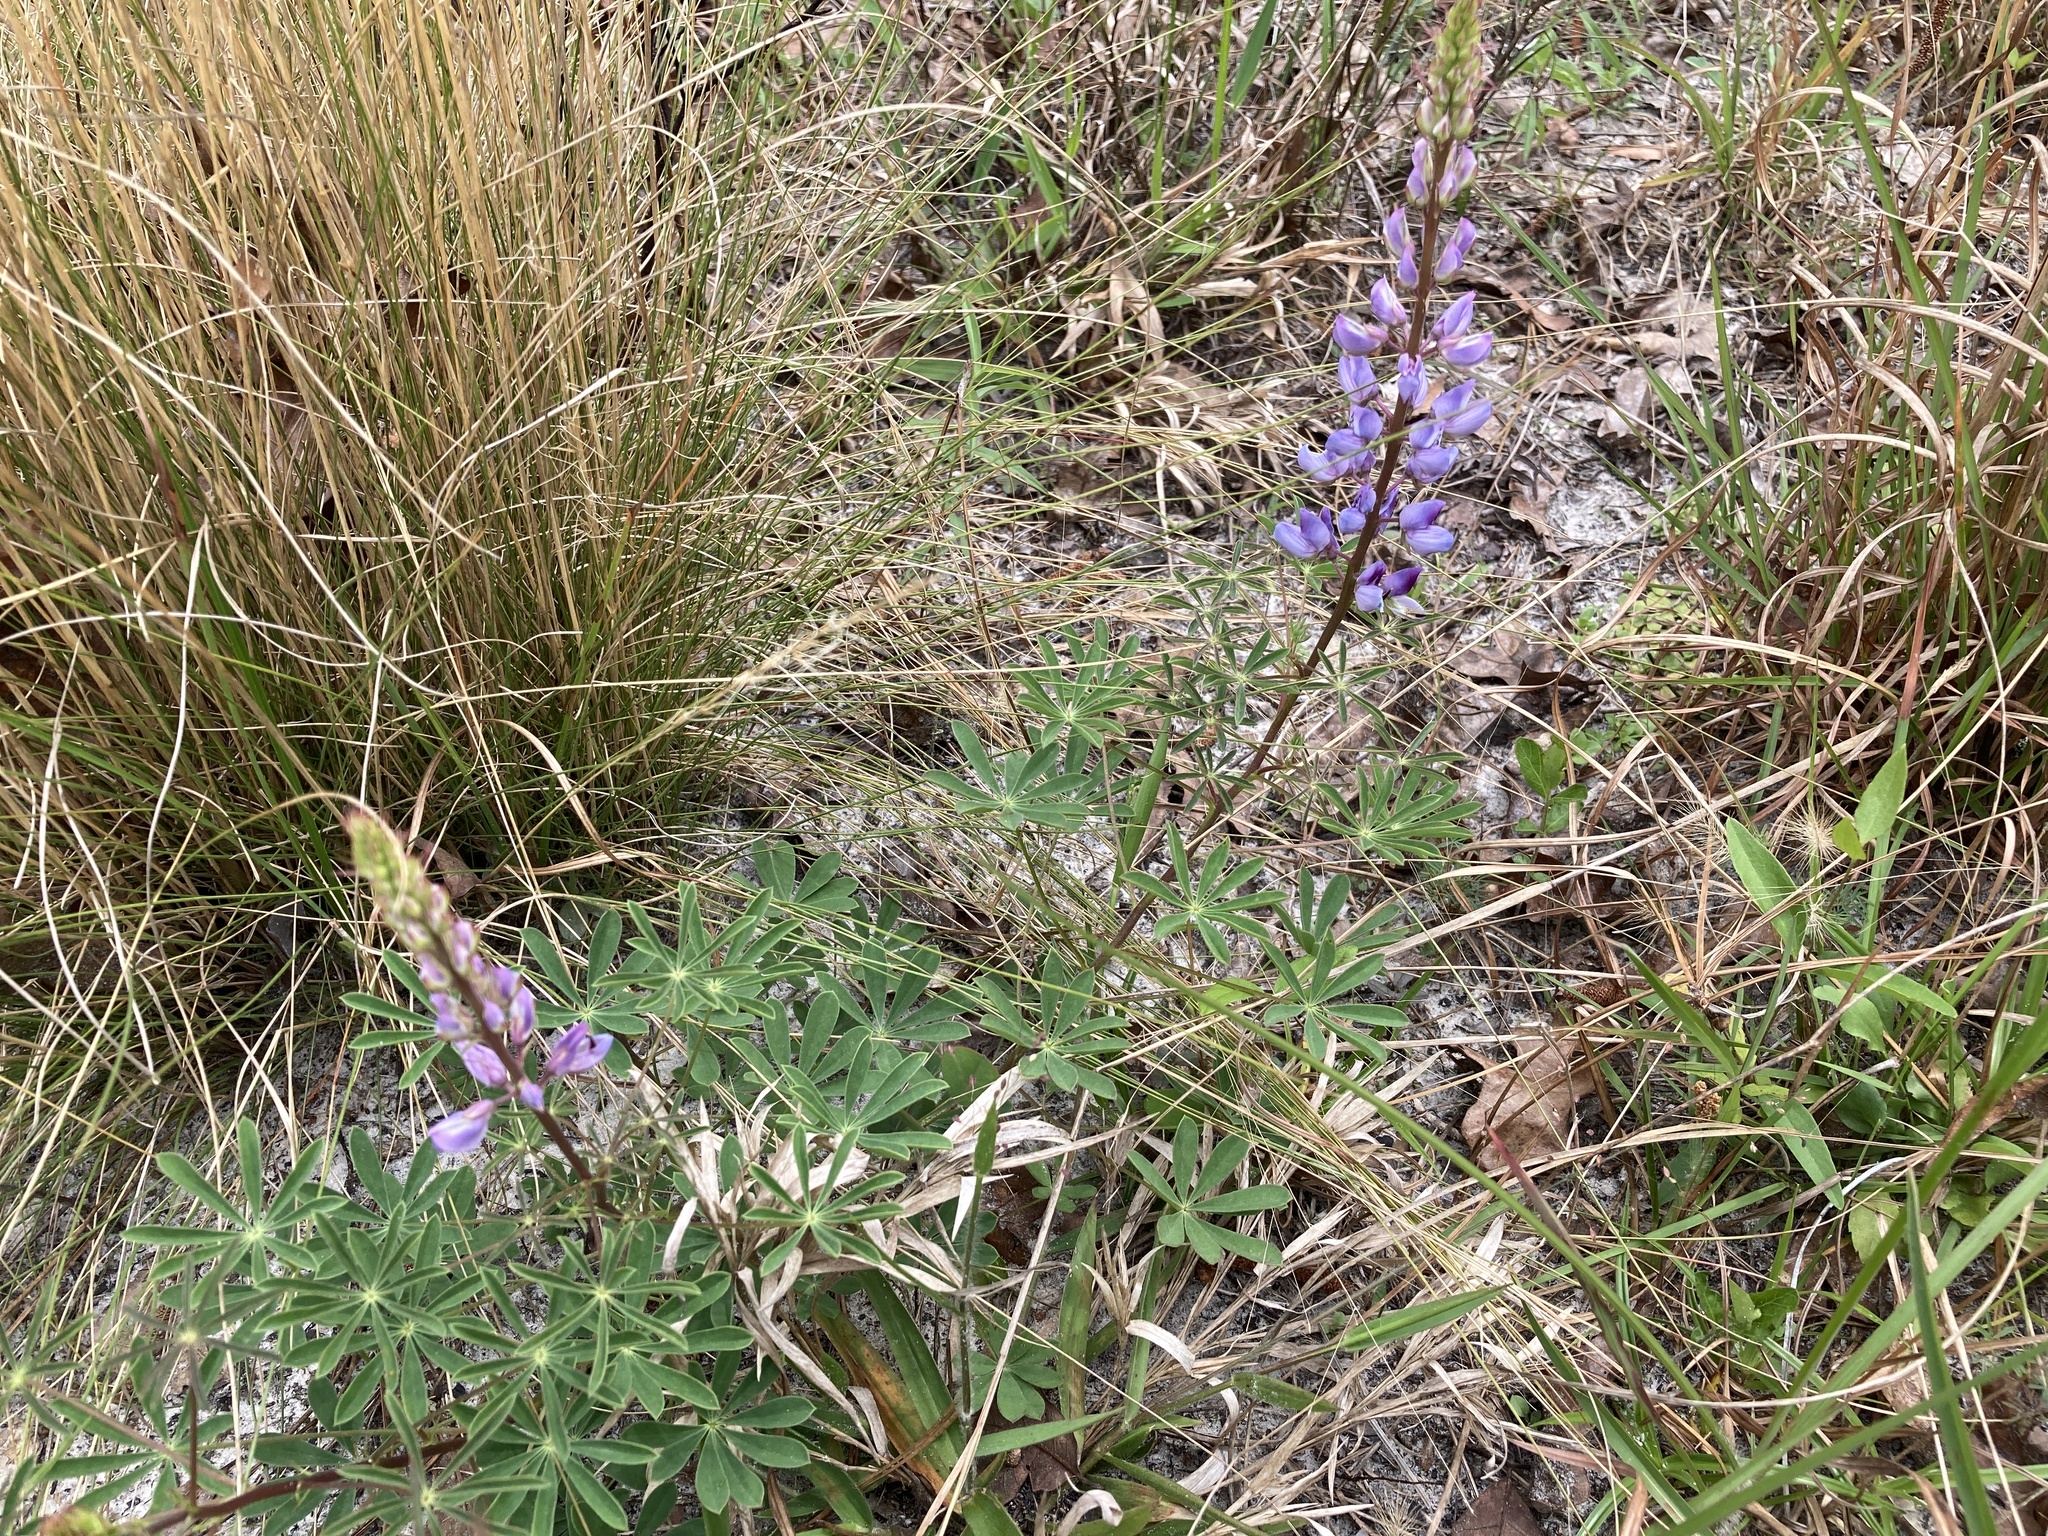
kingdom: Plantae
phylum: Tracheophyta
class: Magnoliopsida
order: Fabales
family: Fabaceae
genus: Lupinus
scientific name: Lupinus perennis
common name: Sundial lupine
